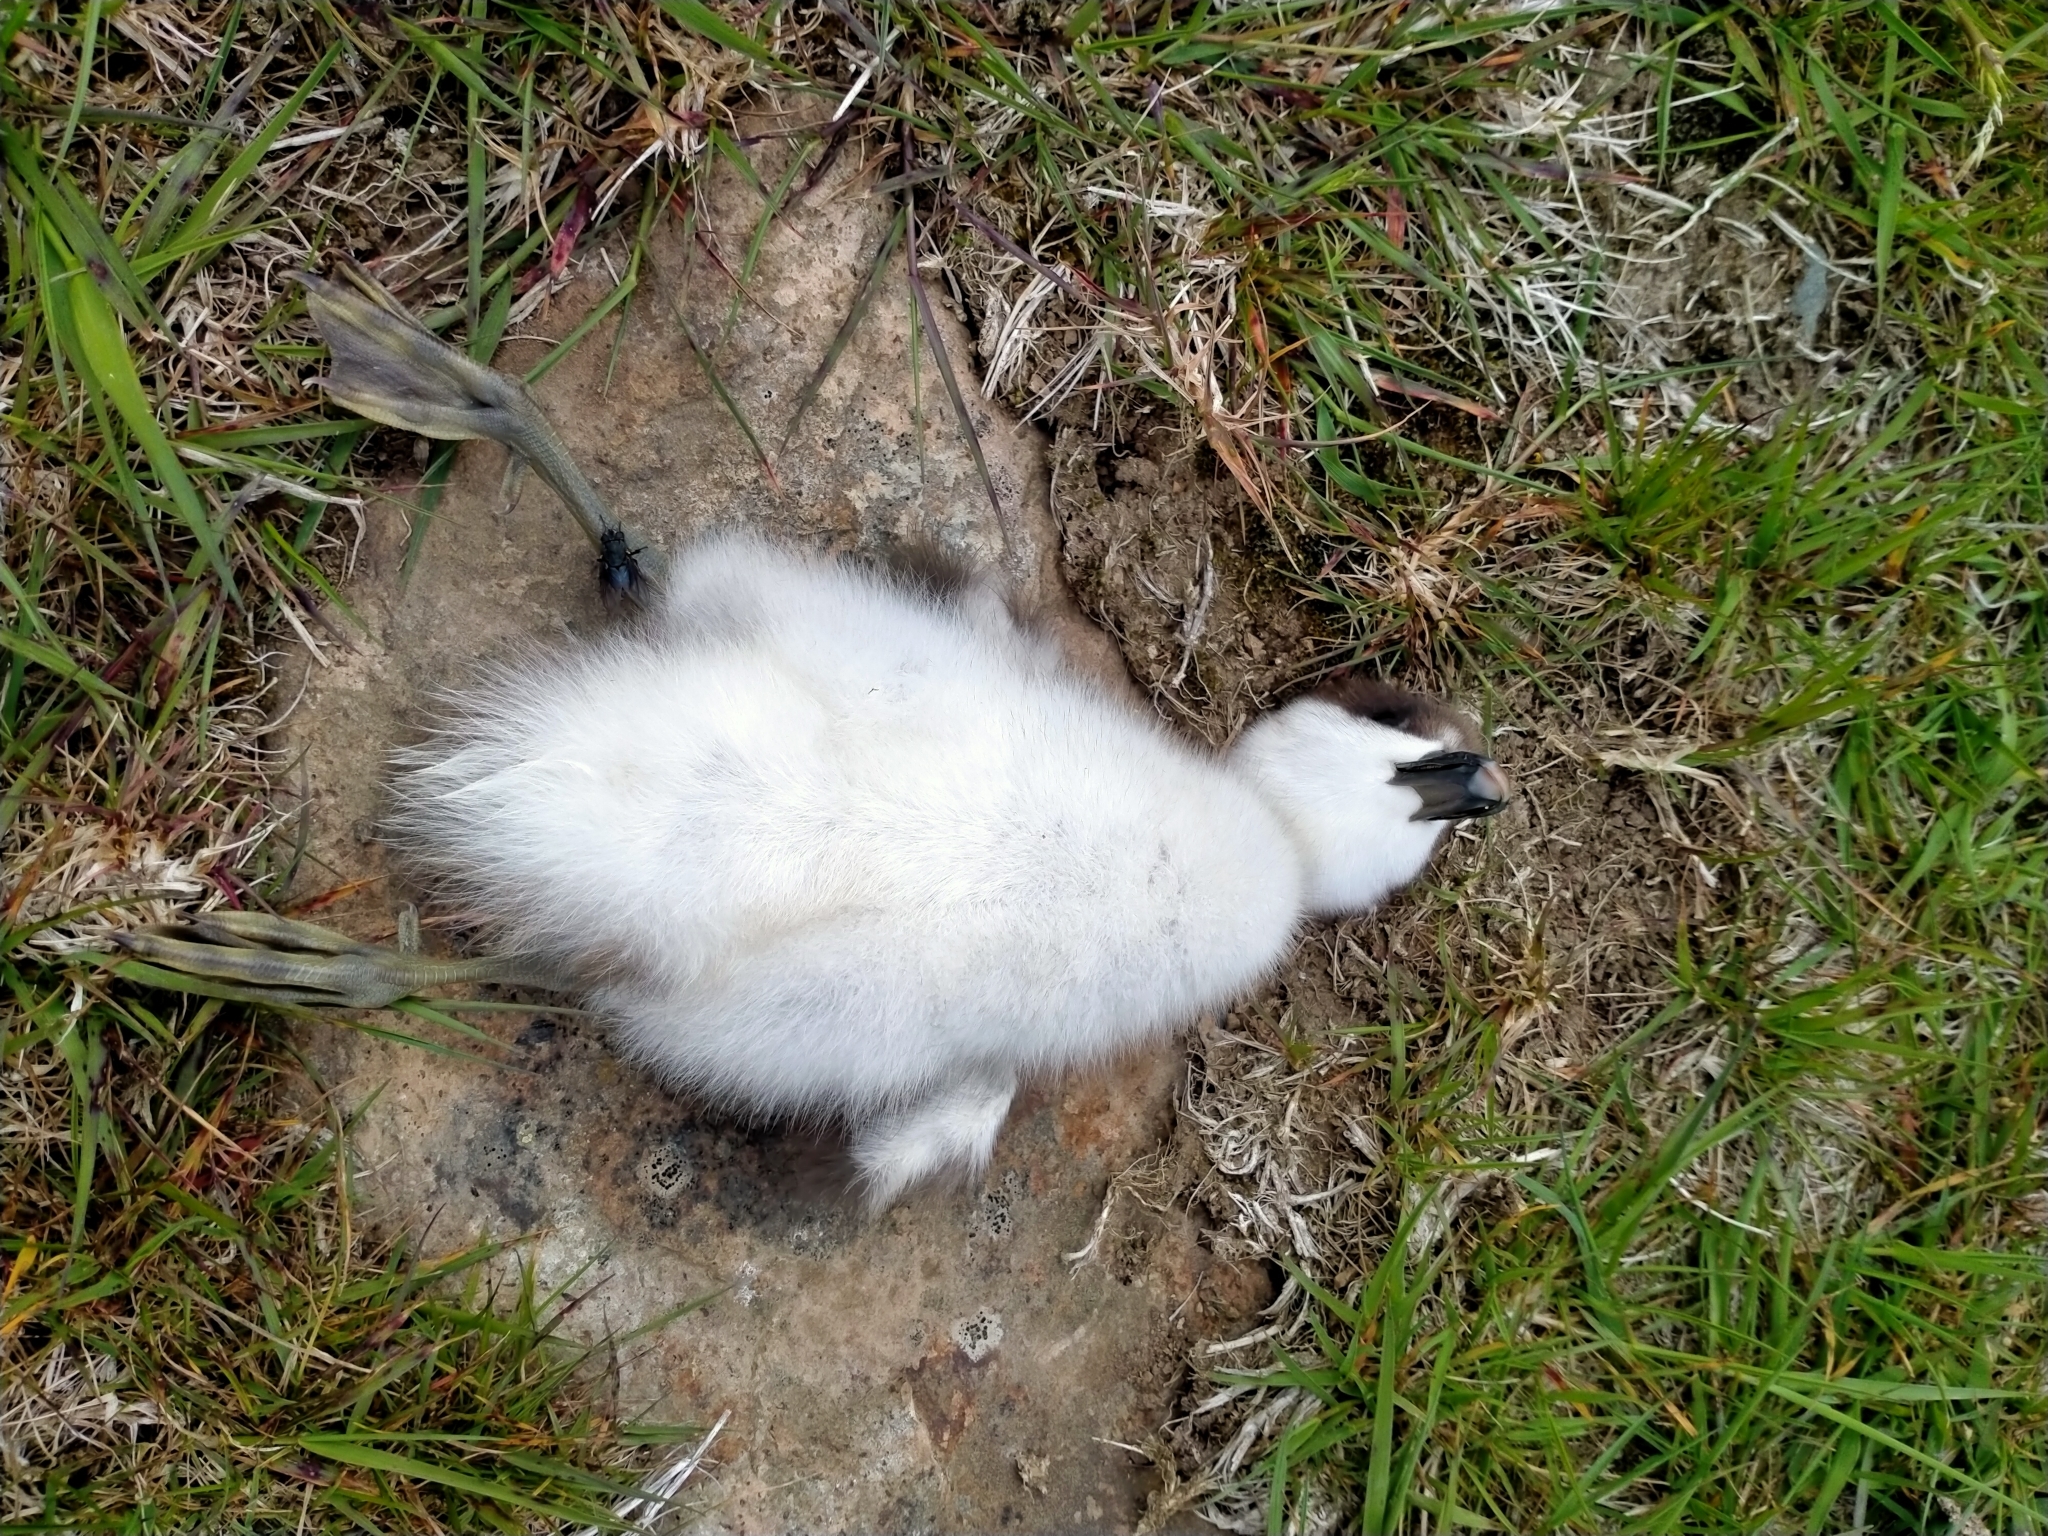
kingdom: Animalia
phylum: Chordata
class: Aves
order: Anseriformes
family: Anatidae
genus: Tadorna
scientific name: Tadorna variegata
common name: Paradise shelduck
